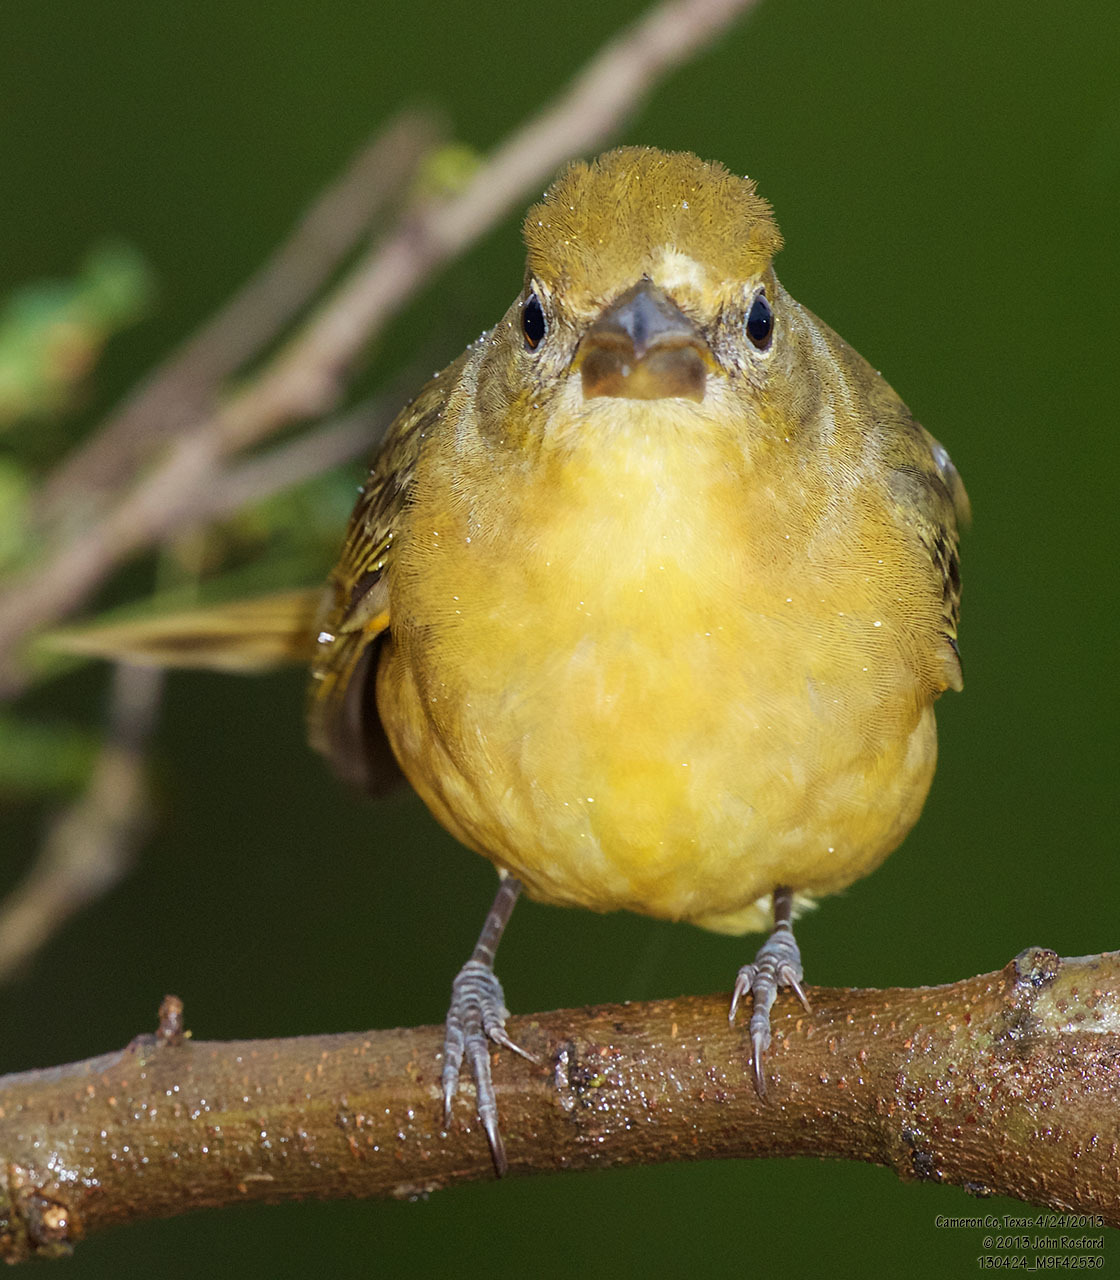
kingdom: Animalia
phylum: Chordata
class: Aves
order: Passeriformes
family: Cardinalidae
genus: Piranga
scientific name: Piranga rubra
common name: Summer tanager
